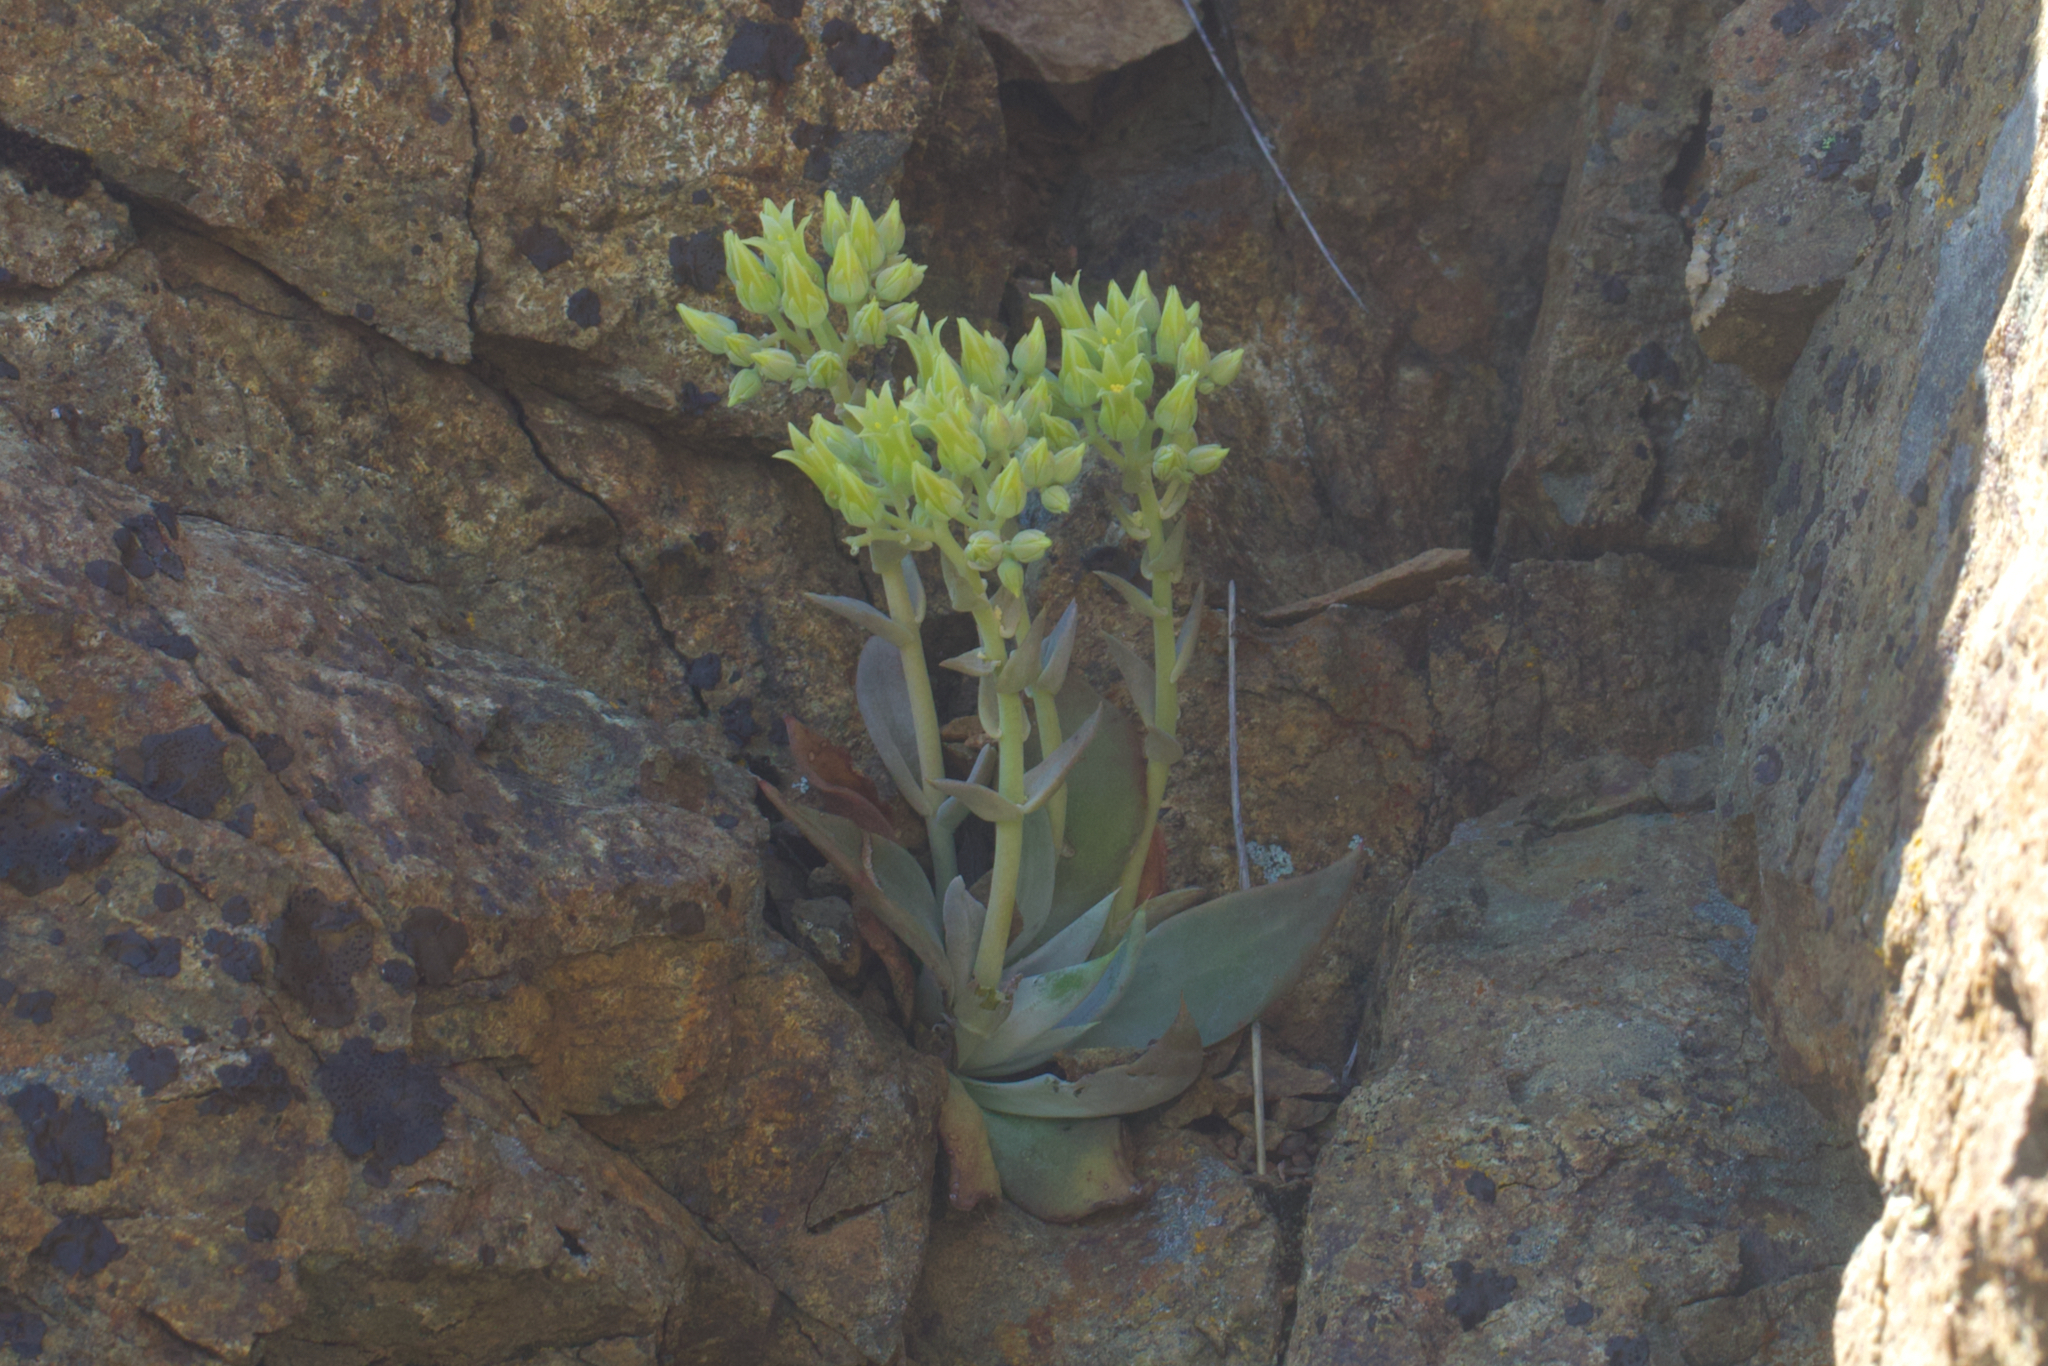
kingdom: Plantae
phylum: Tracheophyta
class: Magnoliopsida
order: Saxifragales
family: Crassulaceae
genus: Dudleya
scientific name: Dudleya cymosa
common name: Canyon dudleya
